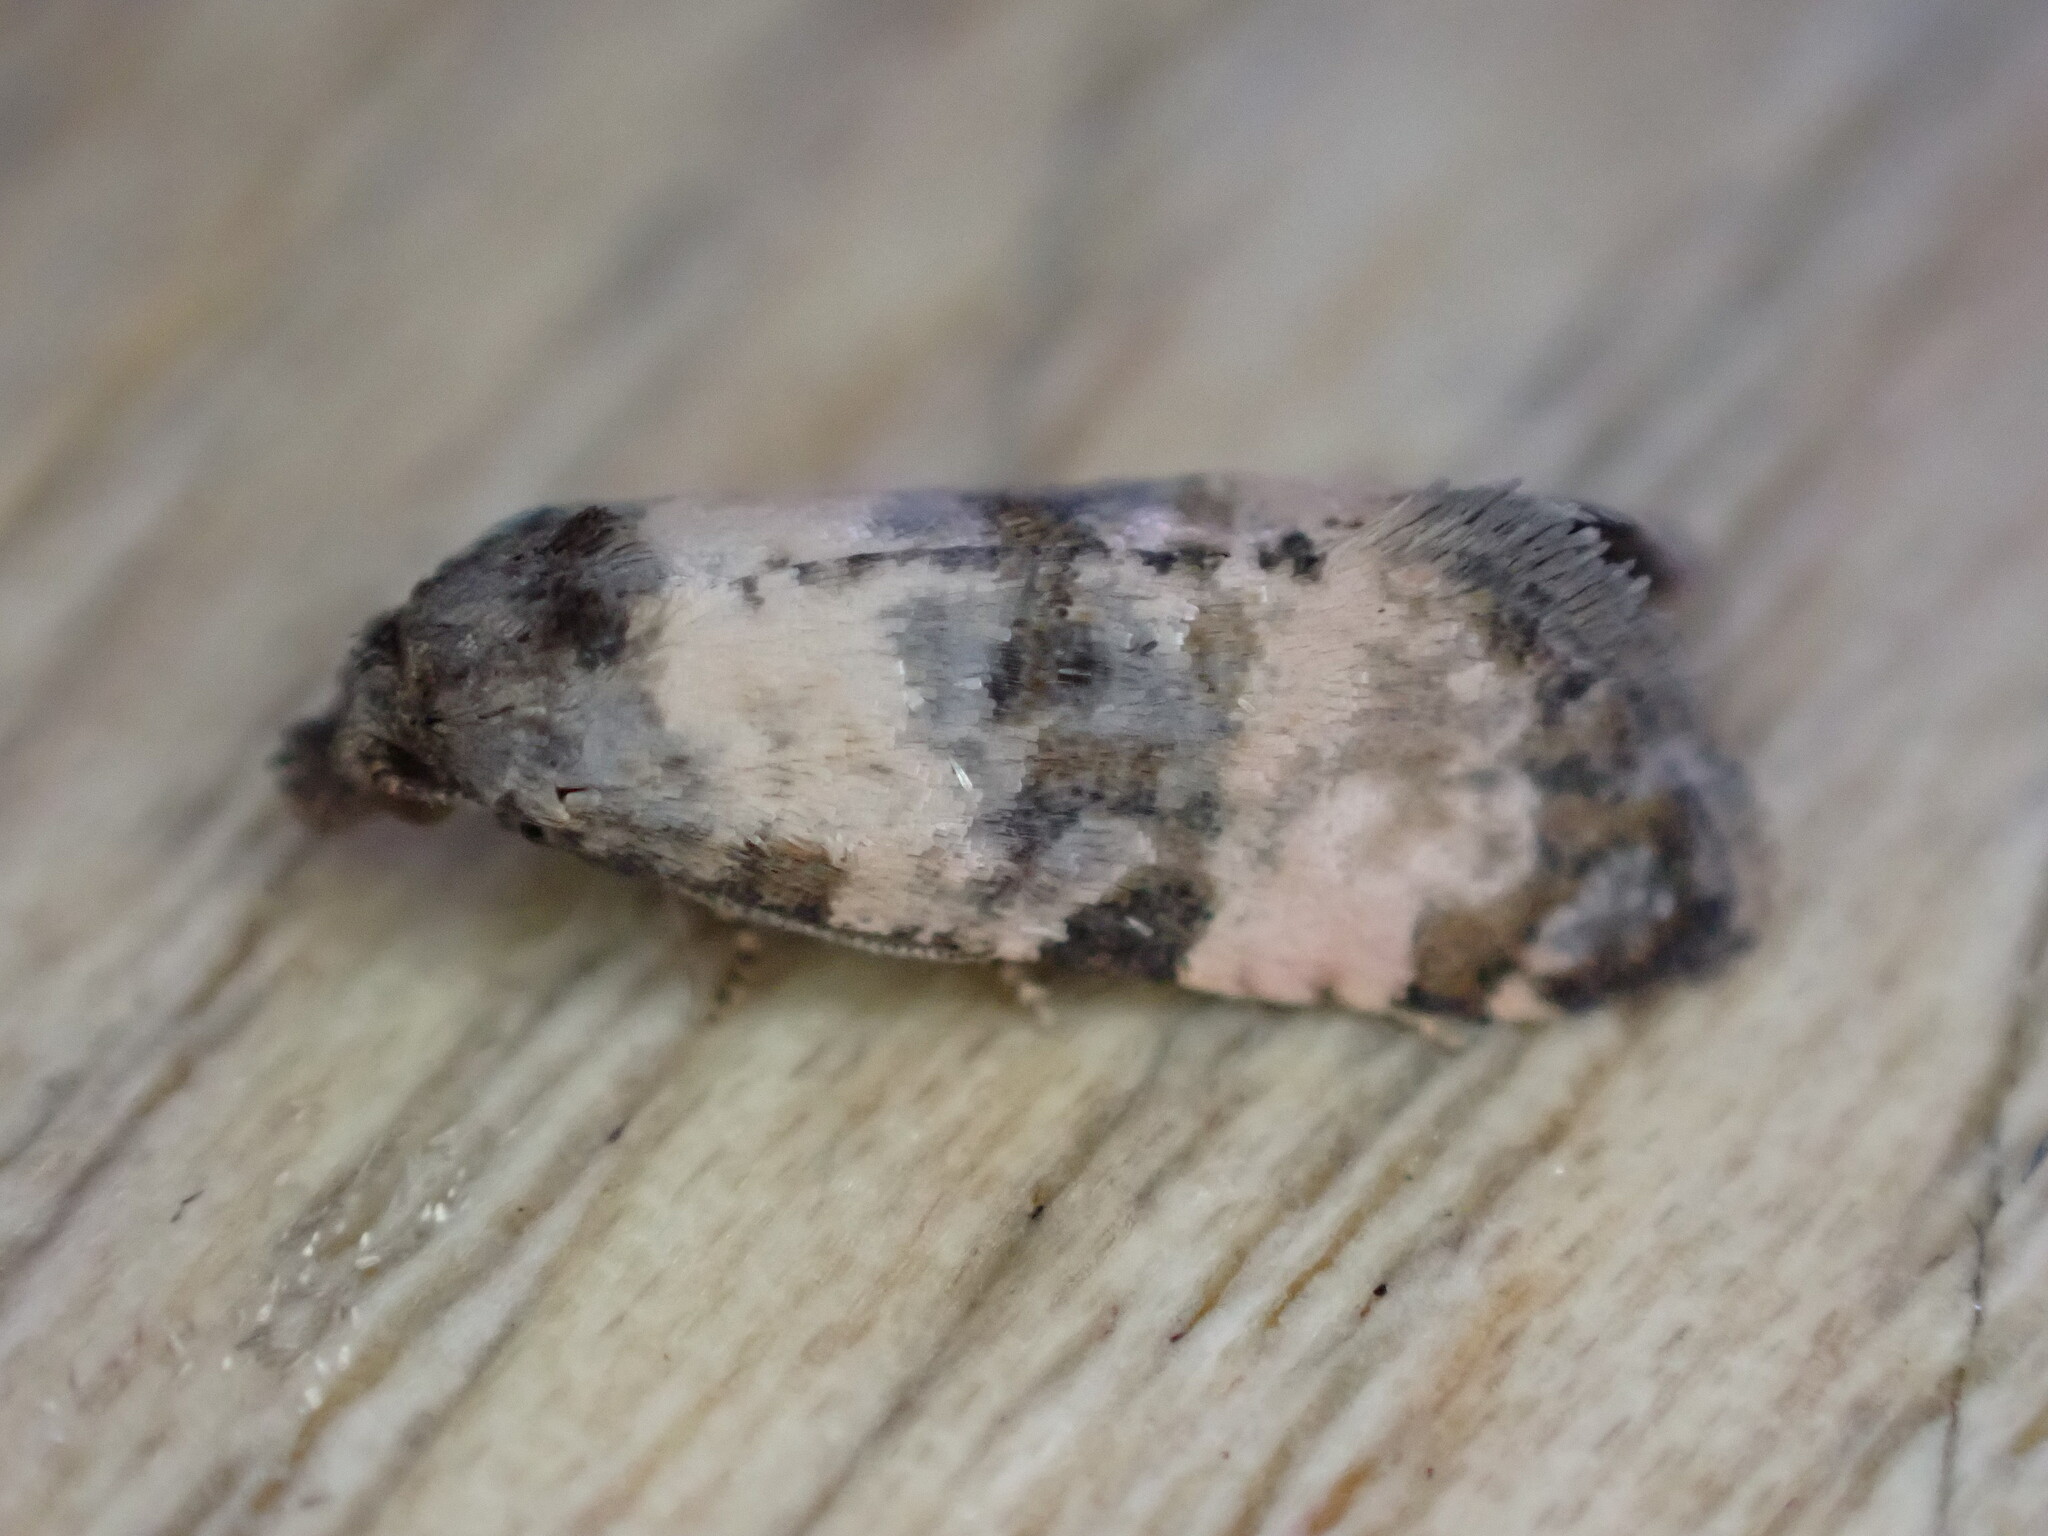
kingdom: Animalia
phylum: Arthropoda
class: Insecta
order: Lepidoptera
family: Tortricidae
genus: Cochylis
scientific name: Cochylis atricapitana
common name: Tortricid moth
